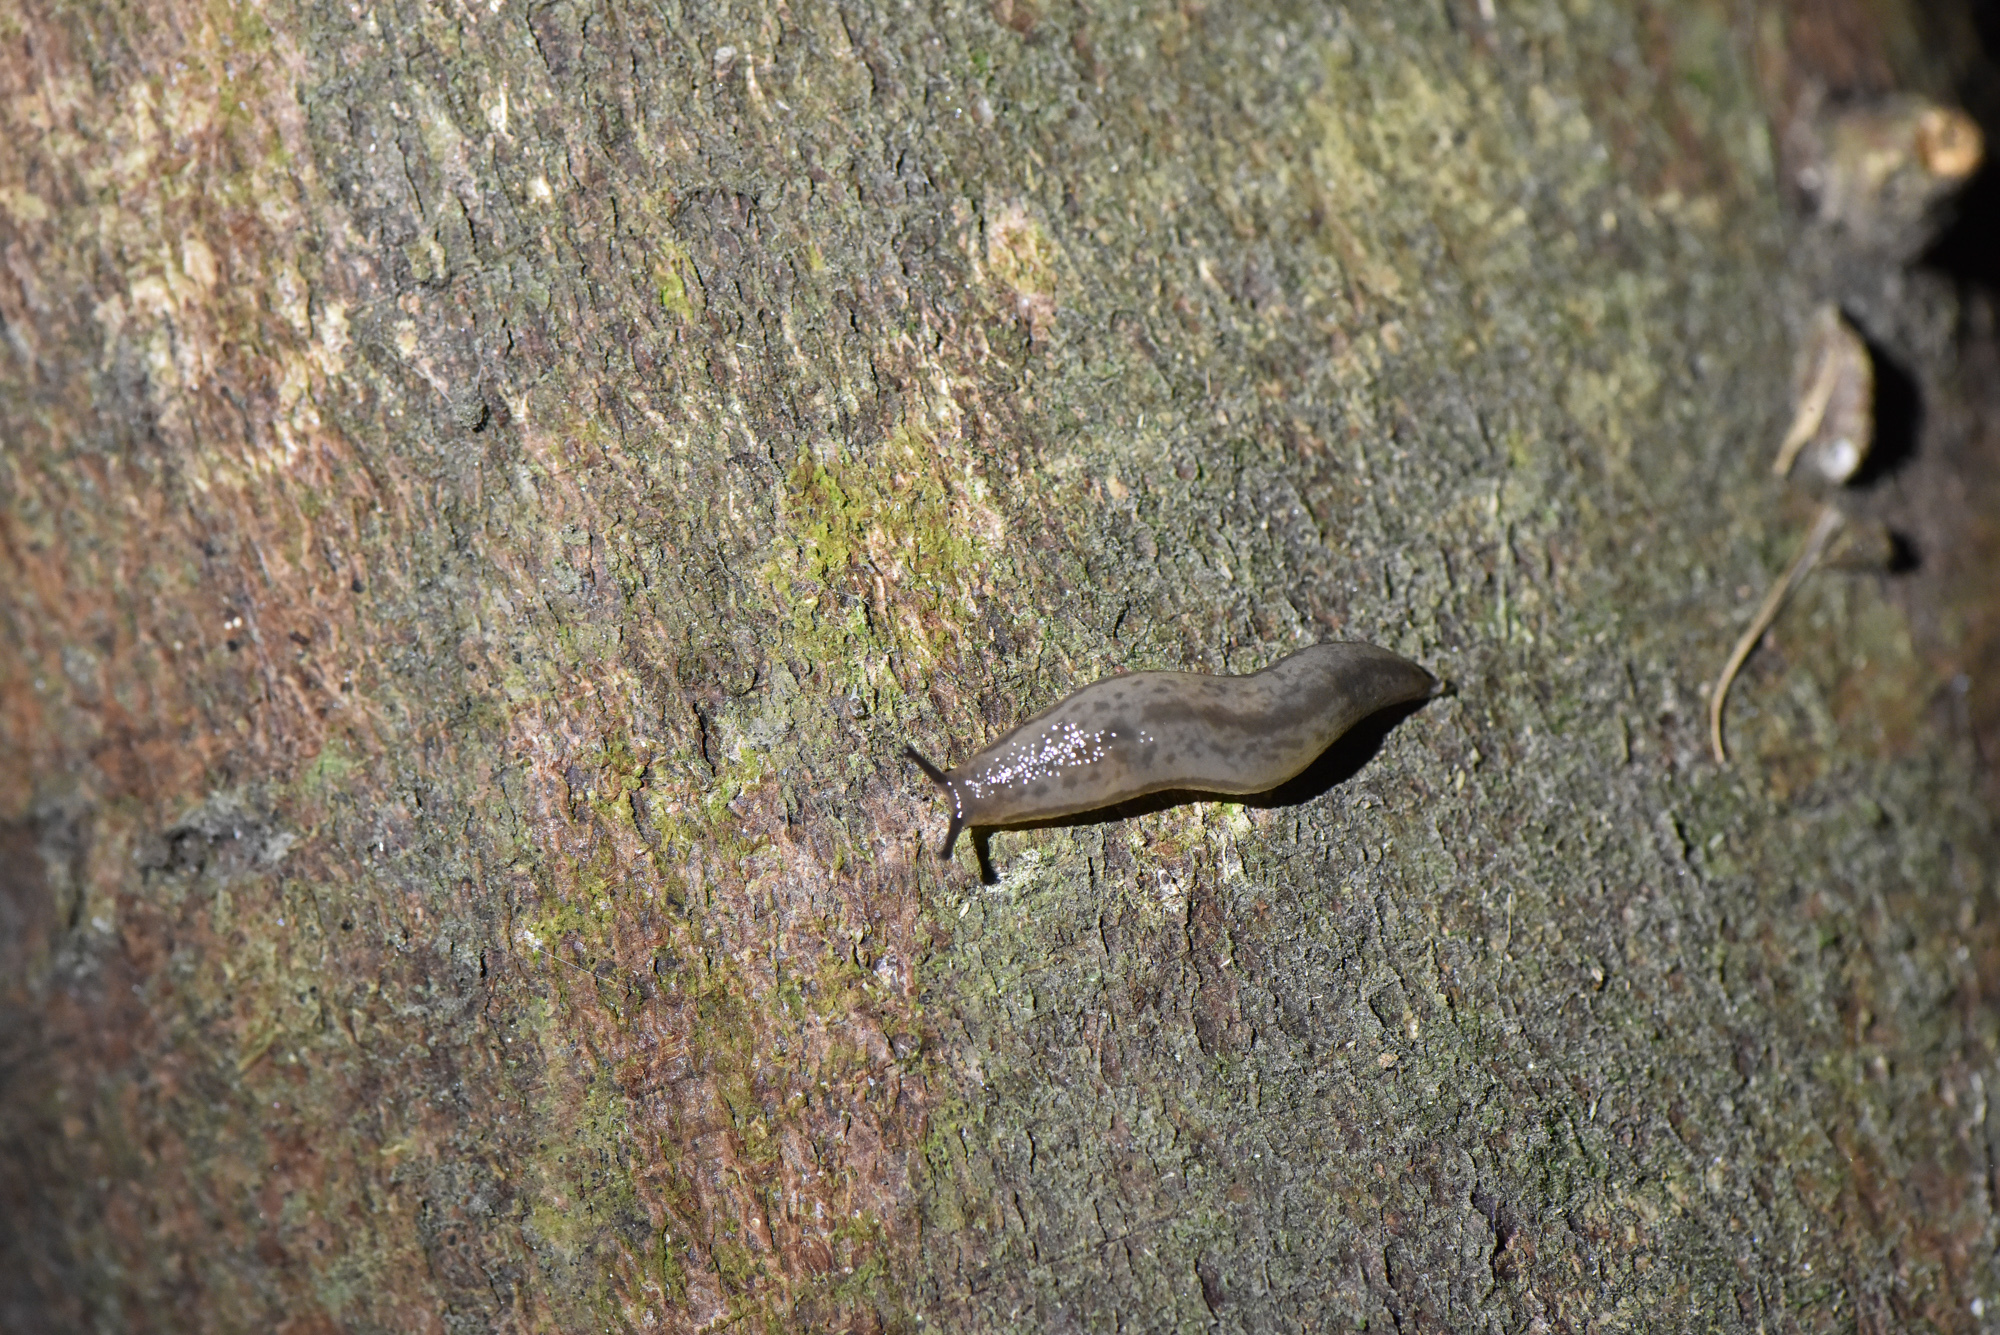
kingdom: Animalia
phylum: Mollusca
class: Gastropoda
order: Stylommatophora
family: Philomycidae
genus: Meghimatium
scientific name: Meghimatium bilineatum
